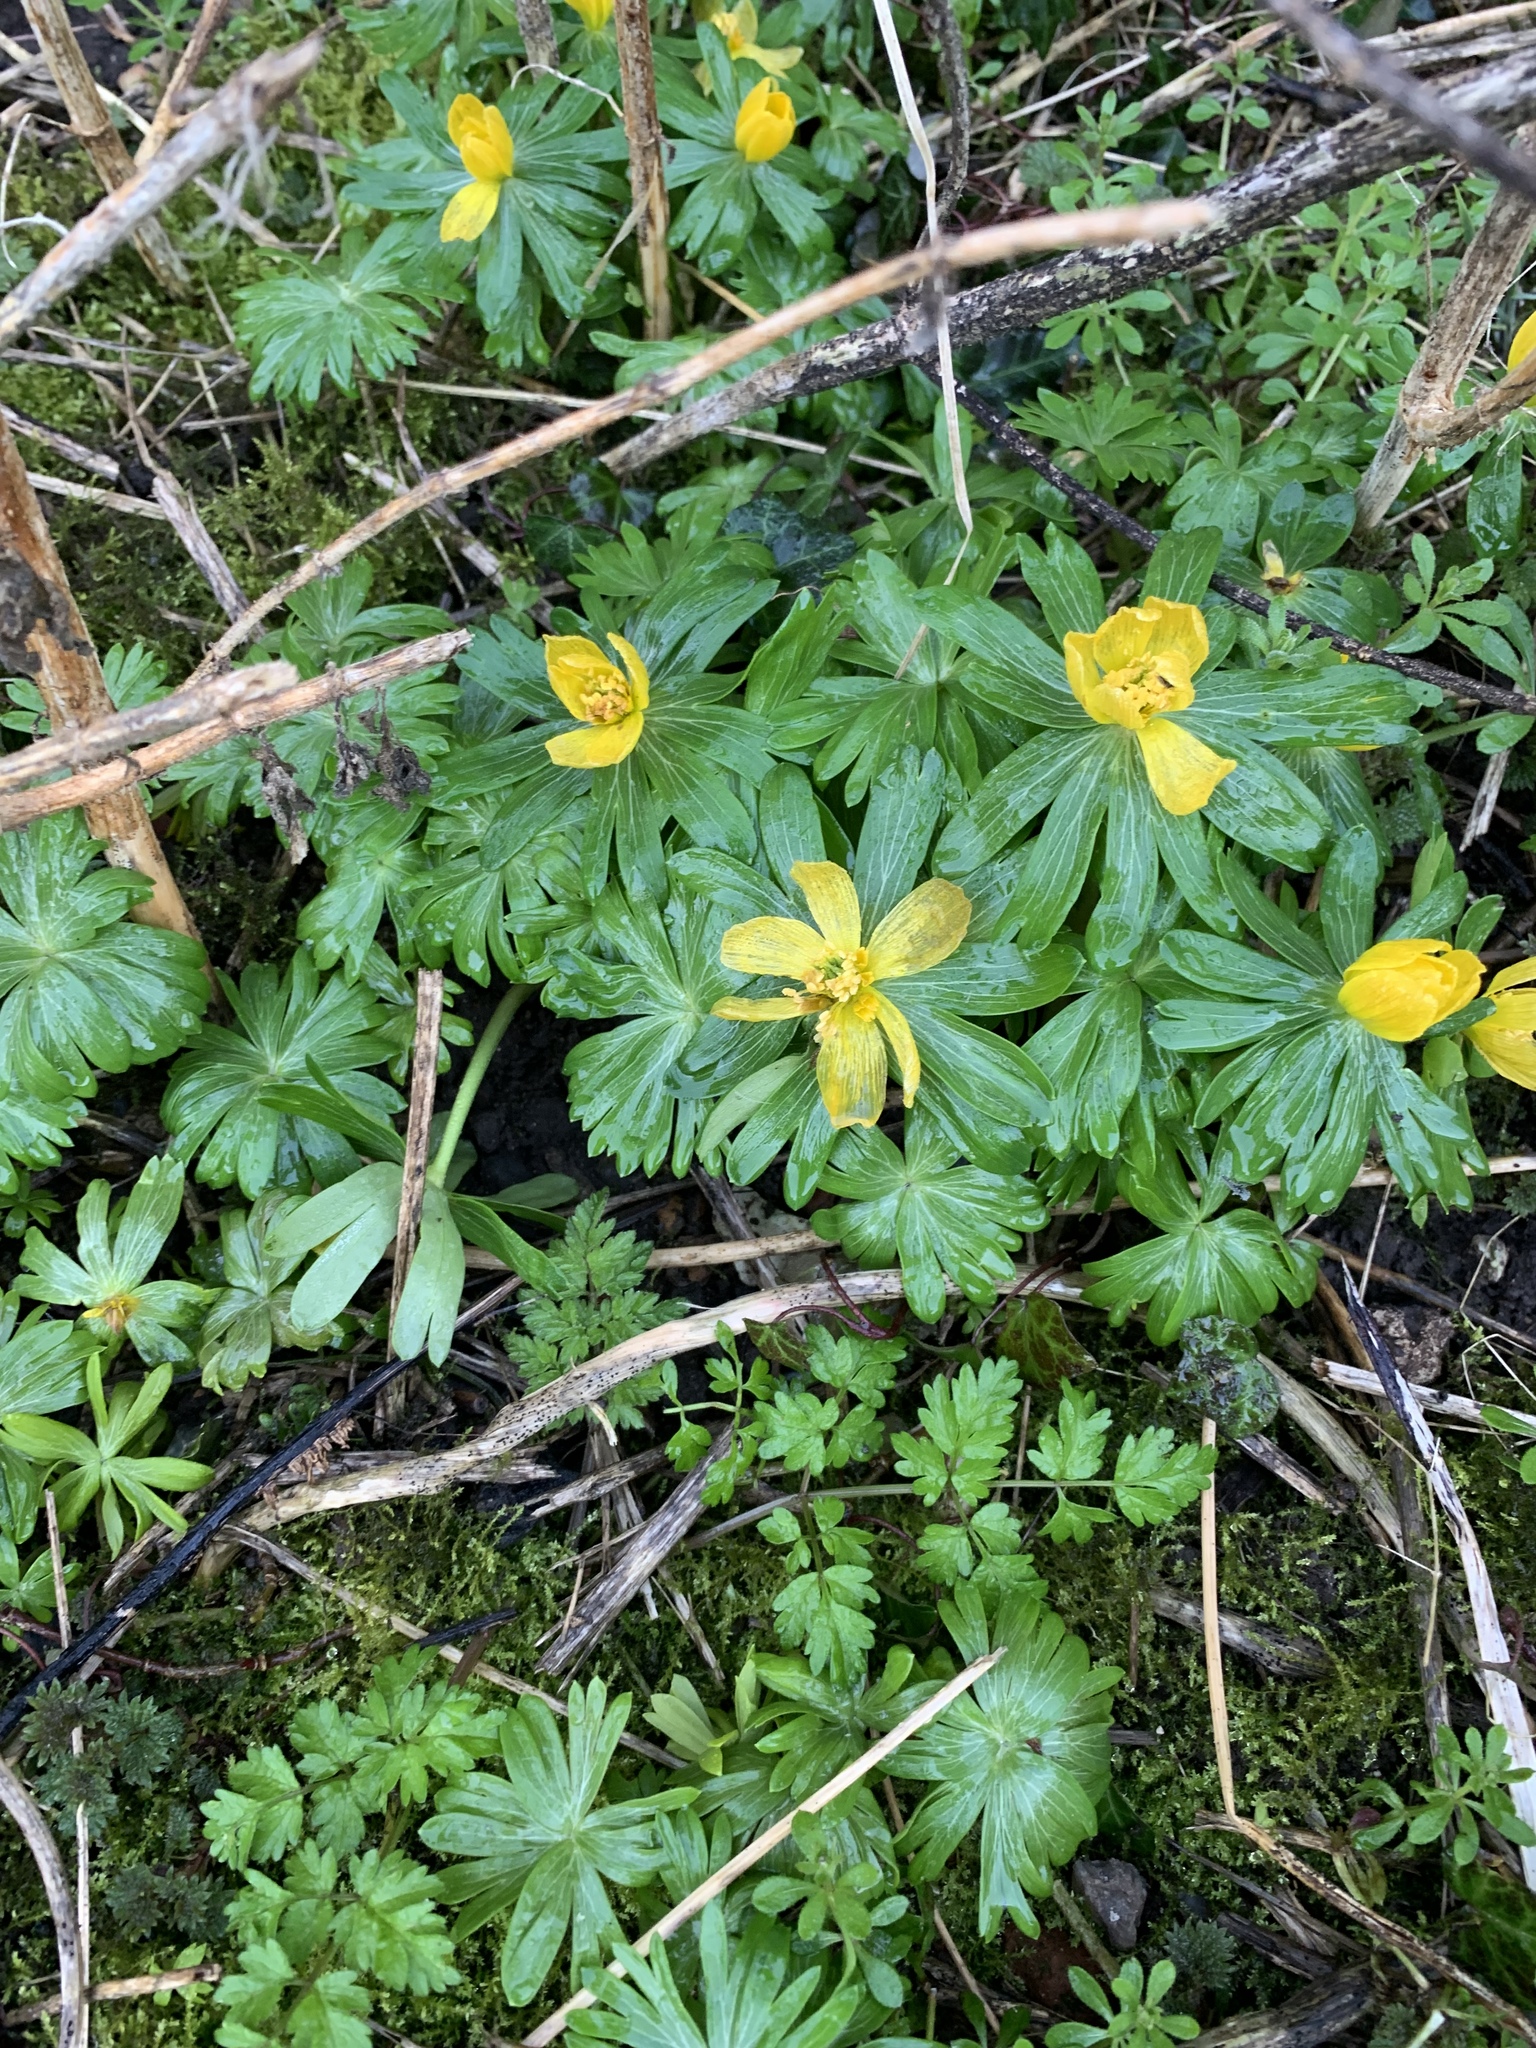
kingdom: Plantae
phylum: Tracheophyta
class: Magnoliopsida
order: Ranunculales
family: Ranunculaceae
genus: Eranthis
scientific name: Eranthis hyemalis
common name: Winter aconite
